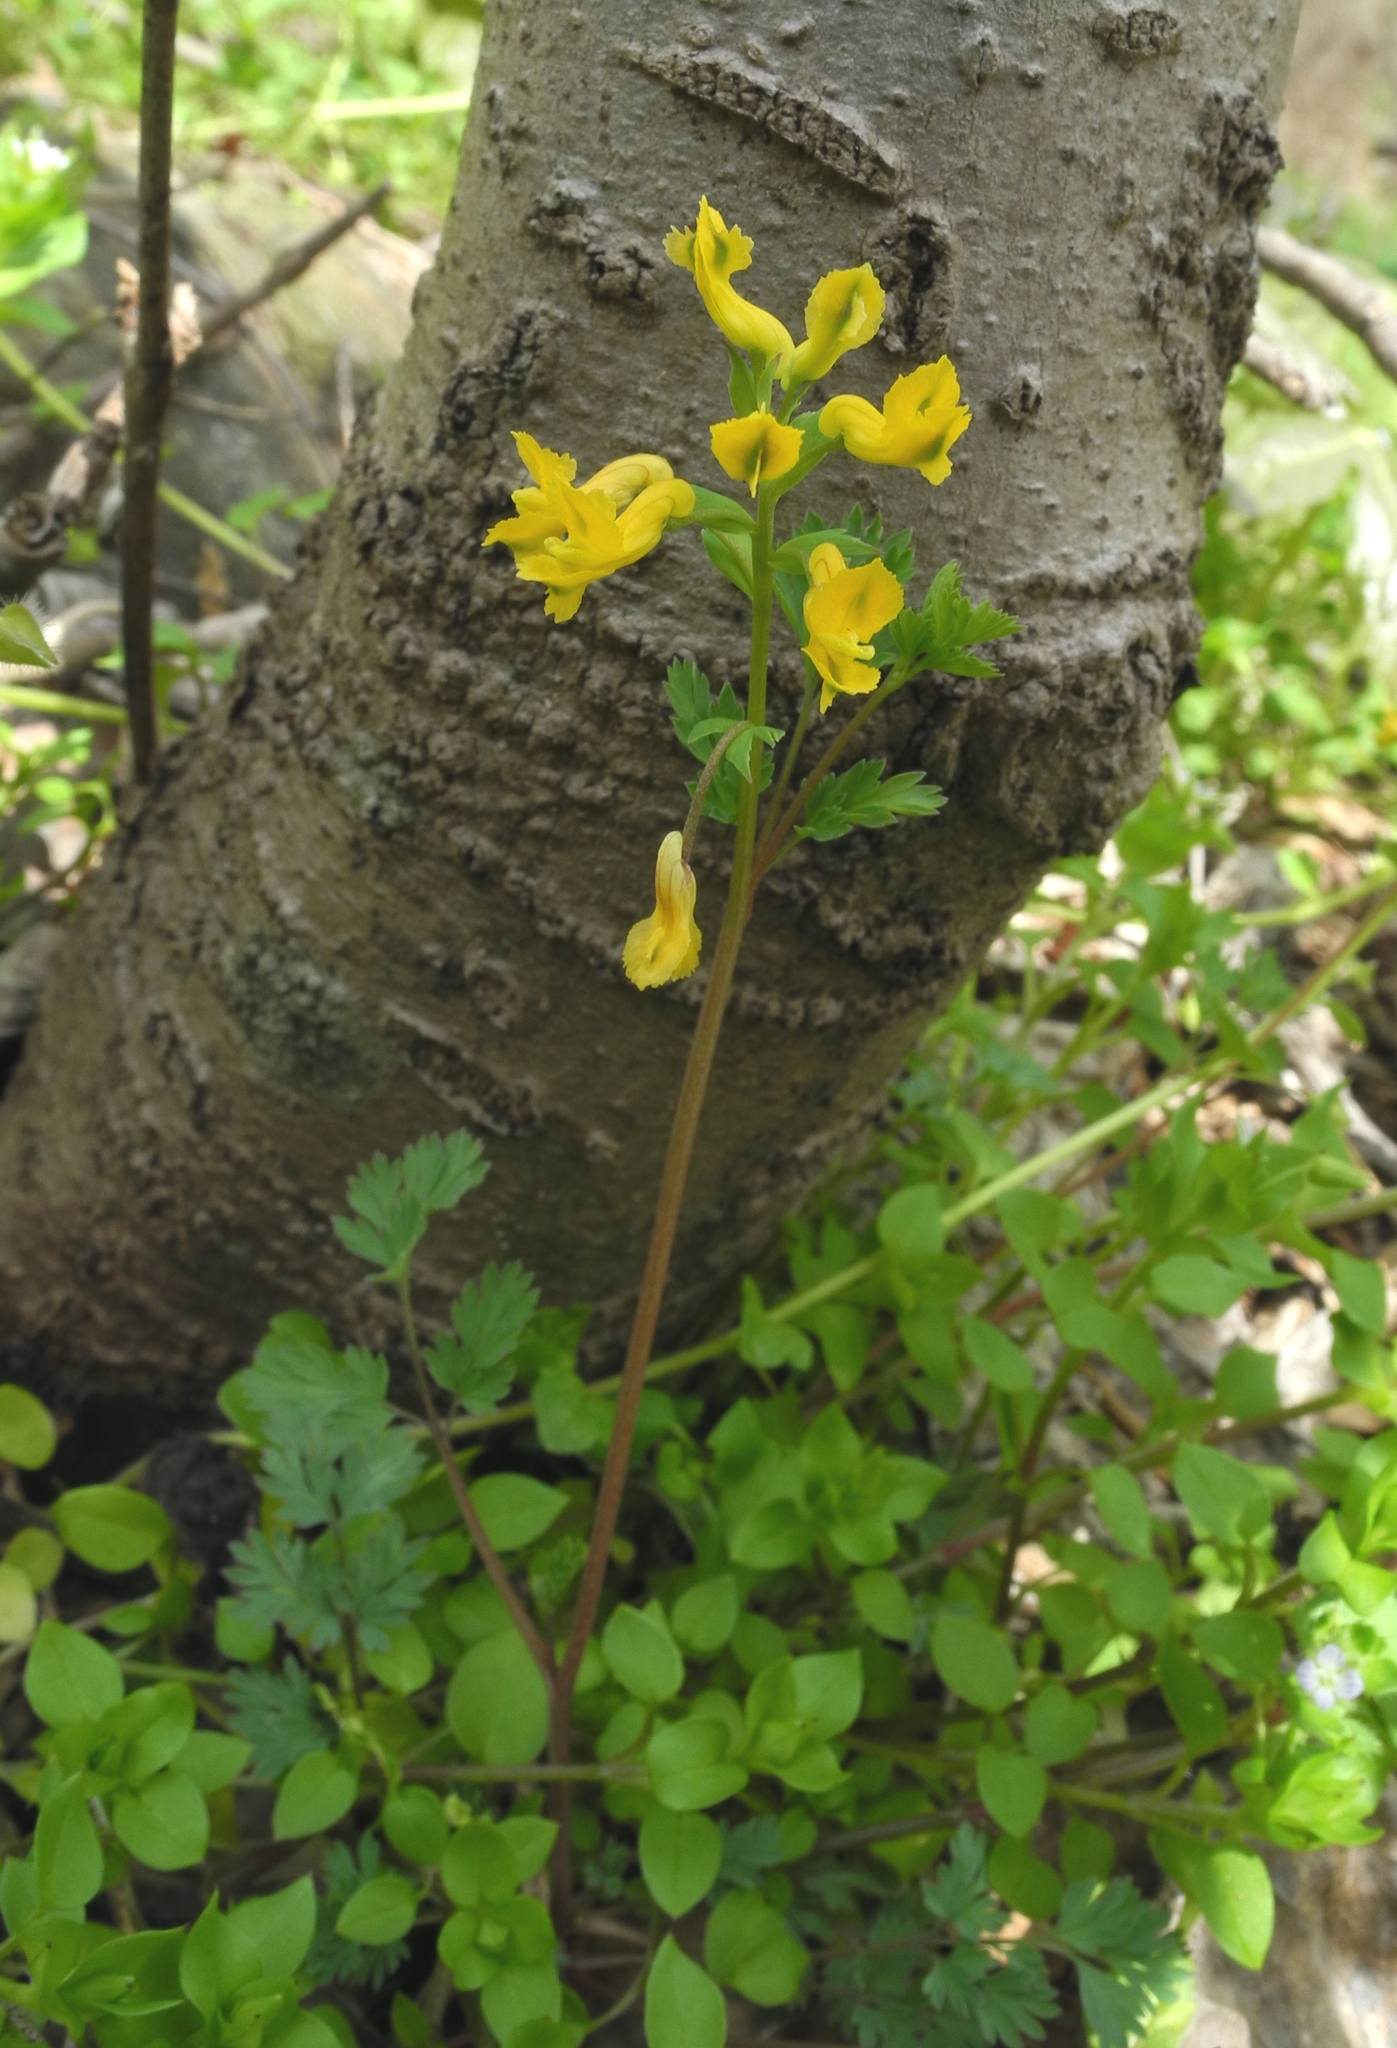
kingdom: Plantae
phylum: Tracheophyta
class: Magnoliopsida
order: Ranunculales
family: Papaveraceae
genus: Corydalis
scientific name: Corydalis flavula
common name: Yellow corydalis
